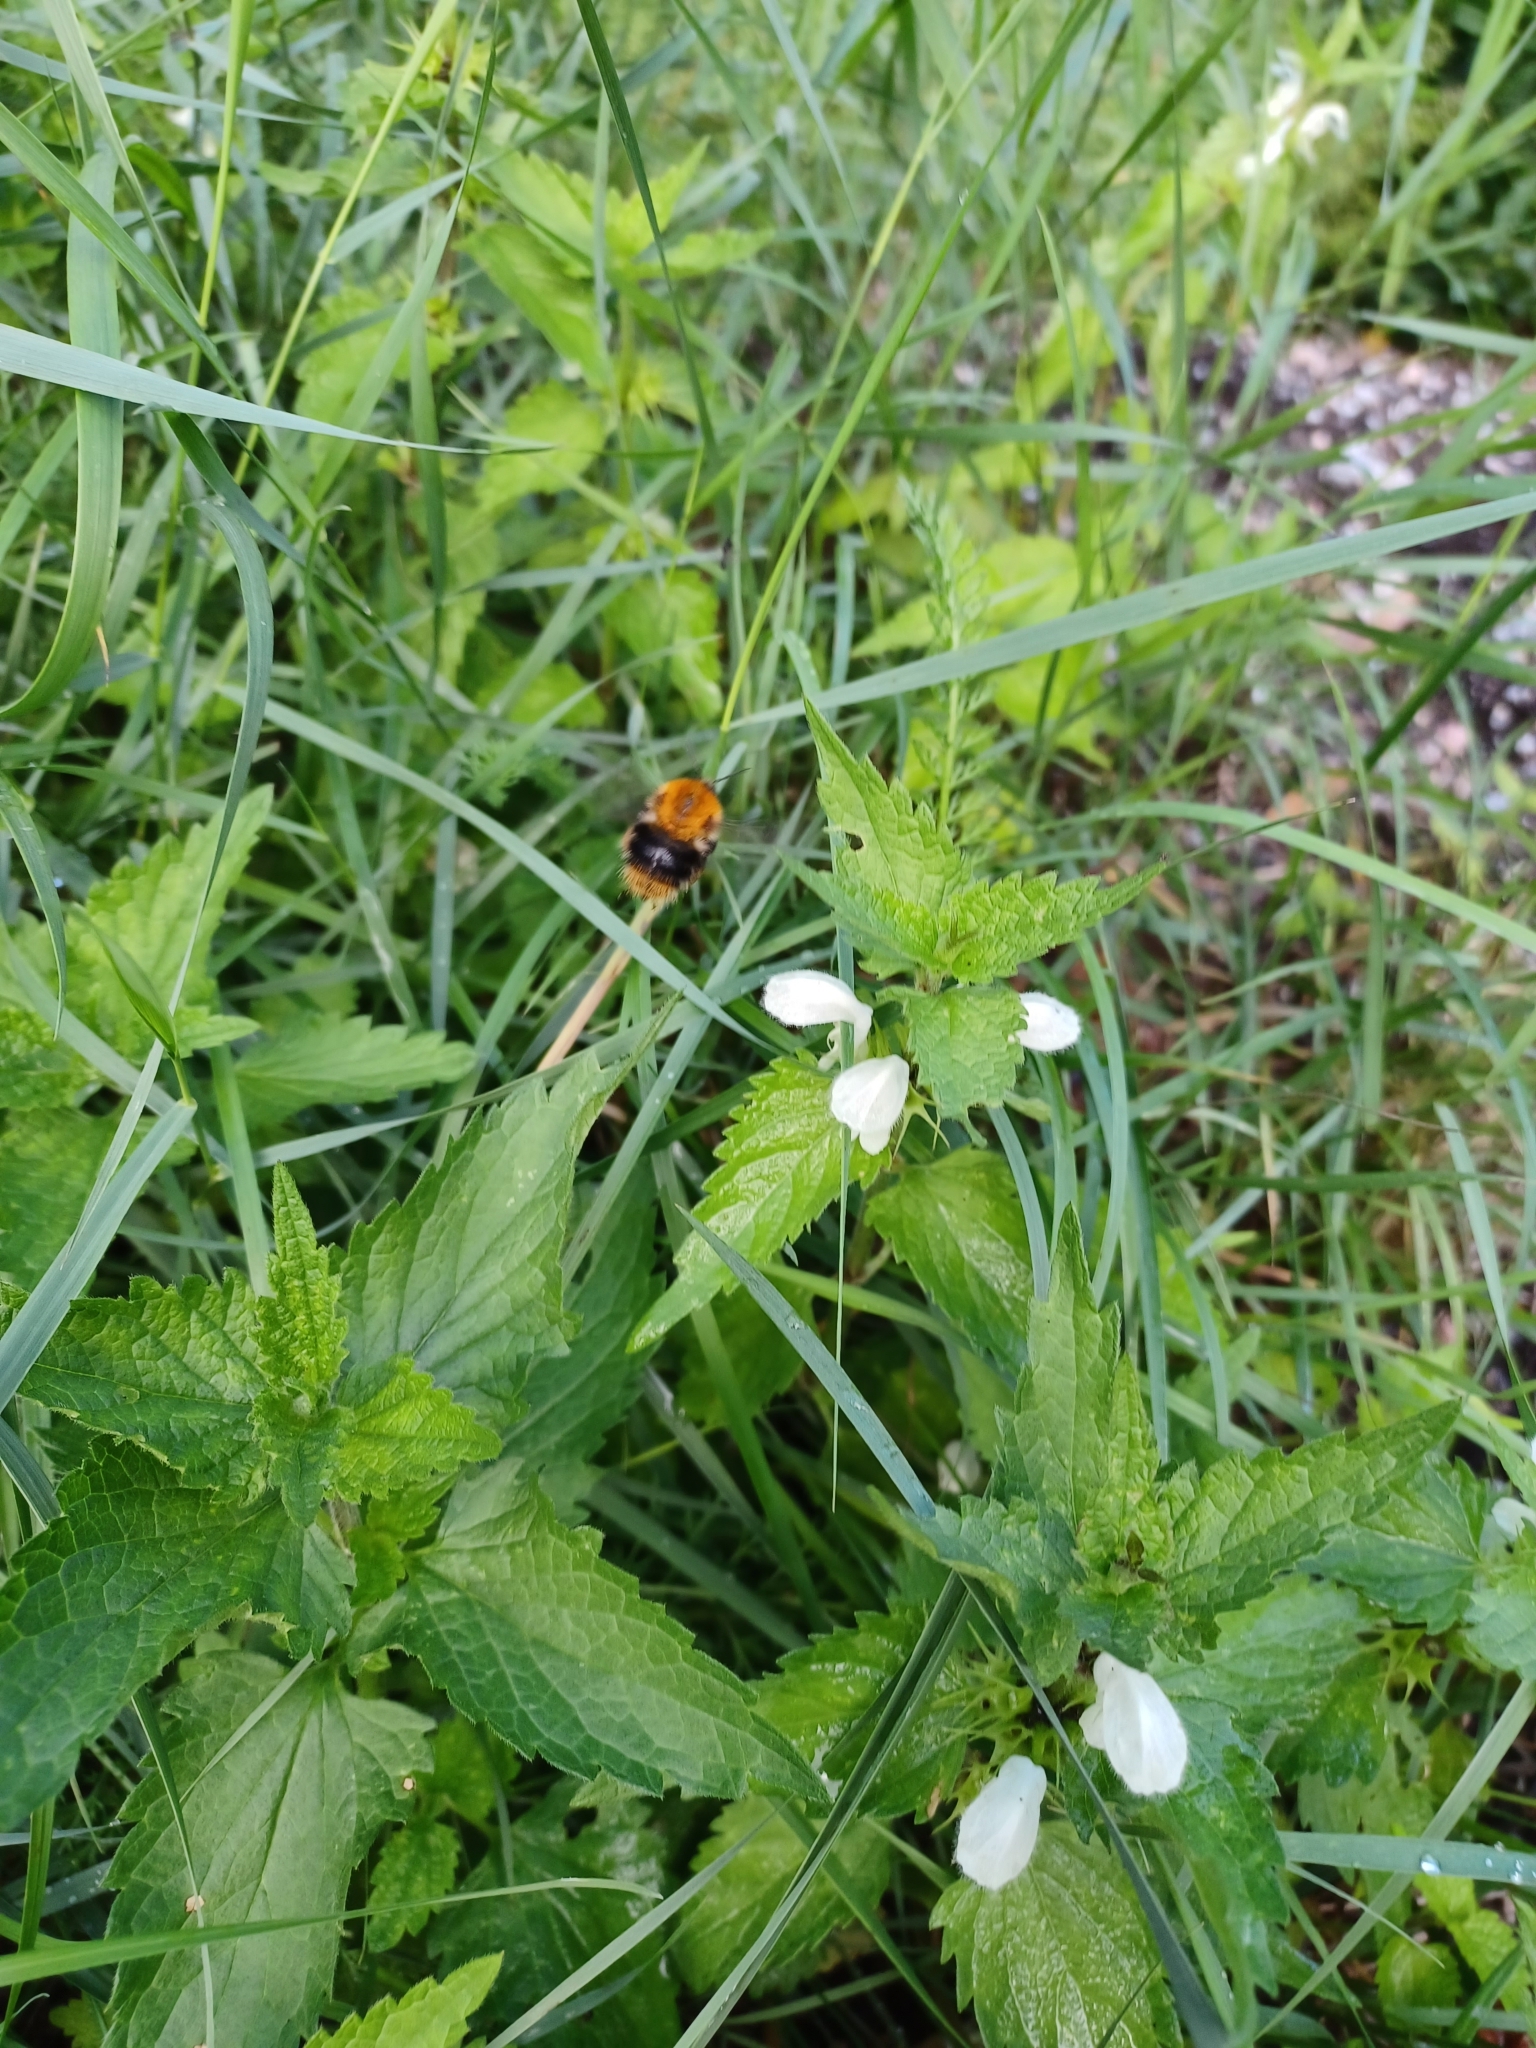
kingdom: Animalia
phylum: Arthropoda
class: Insecta
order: Hymenoptera
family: Apidae
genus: Bombus
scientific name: Bombus pascuorum
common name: Common carder bee
